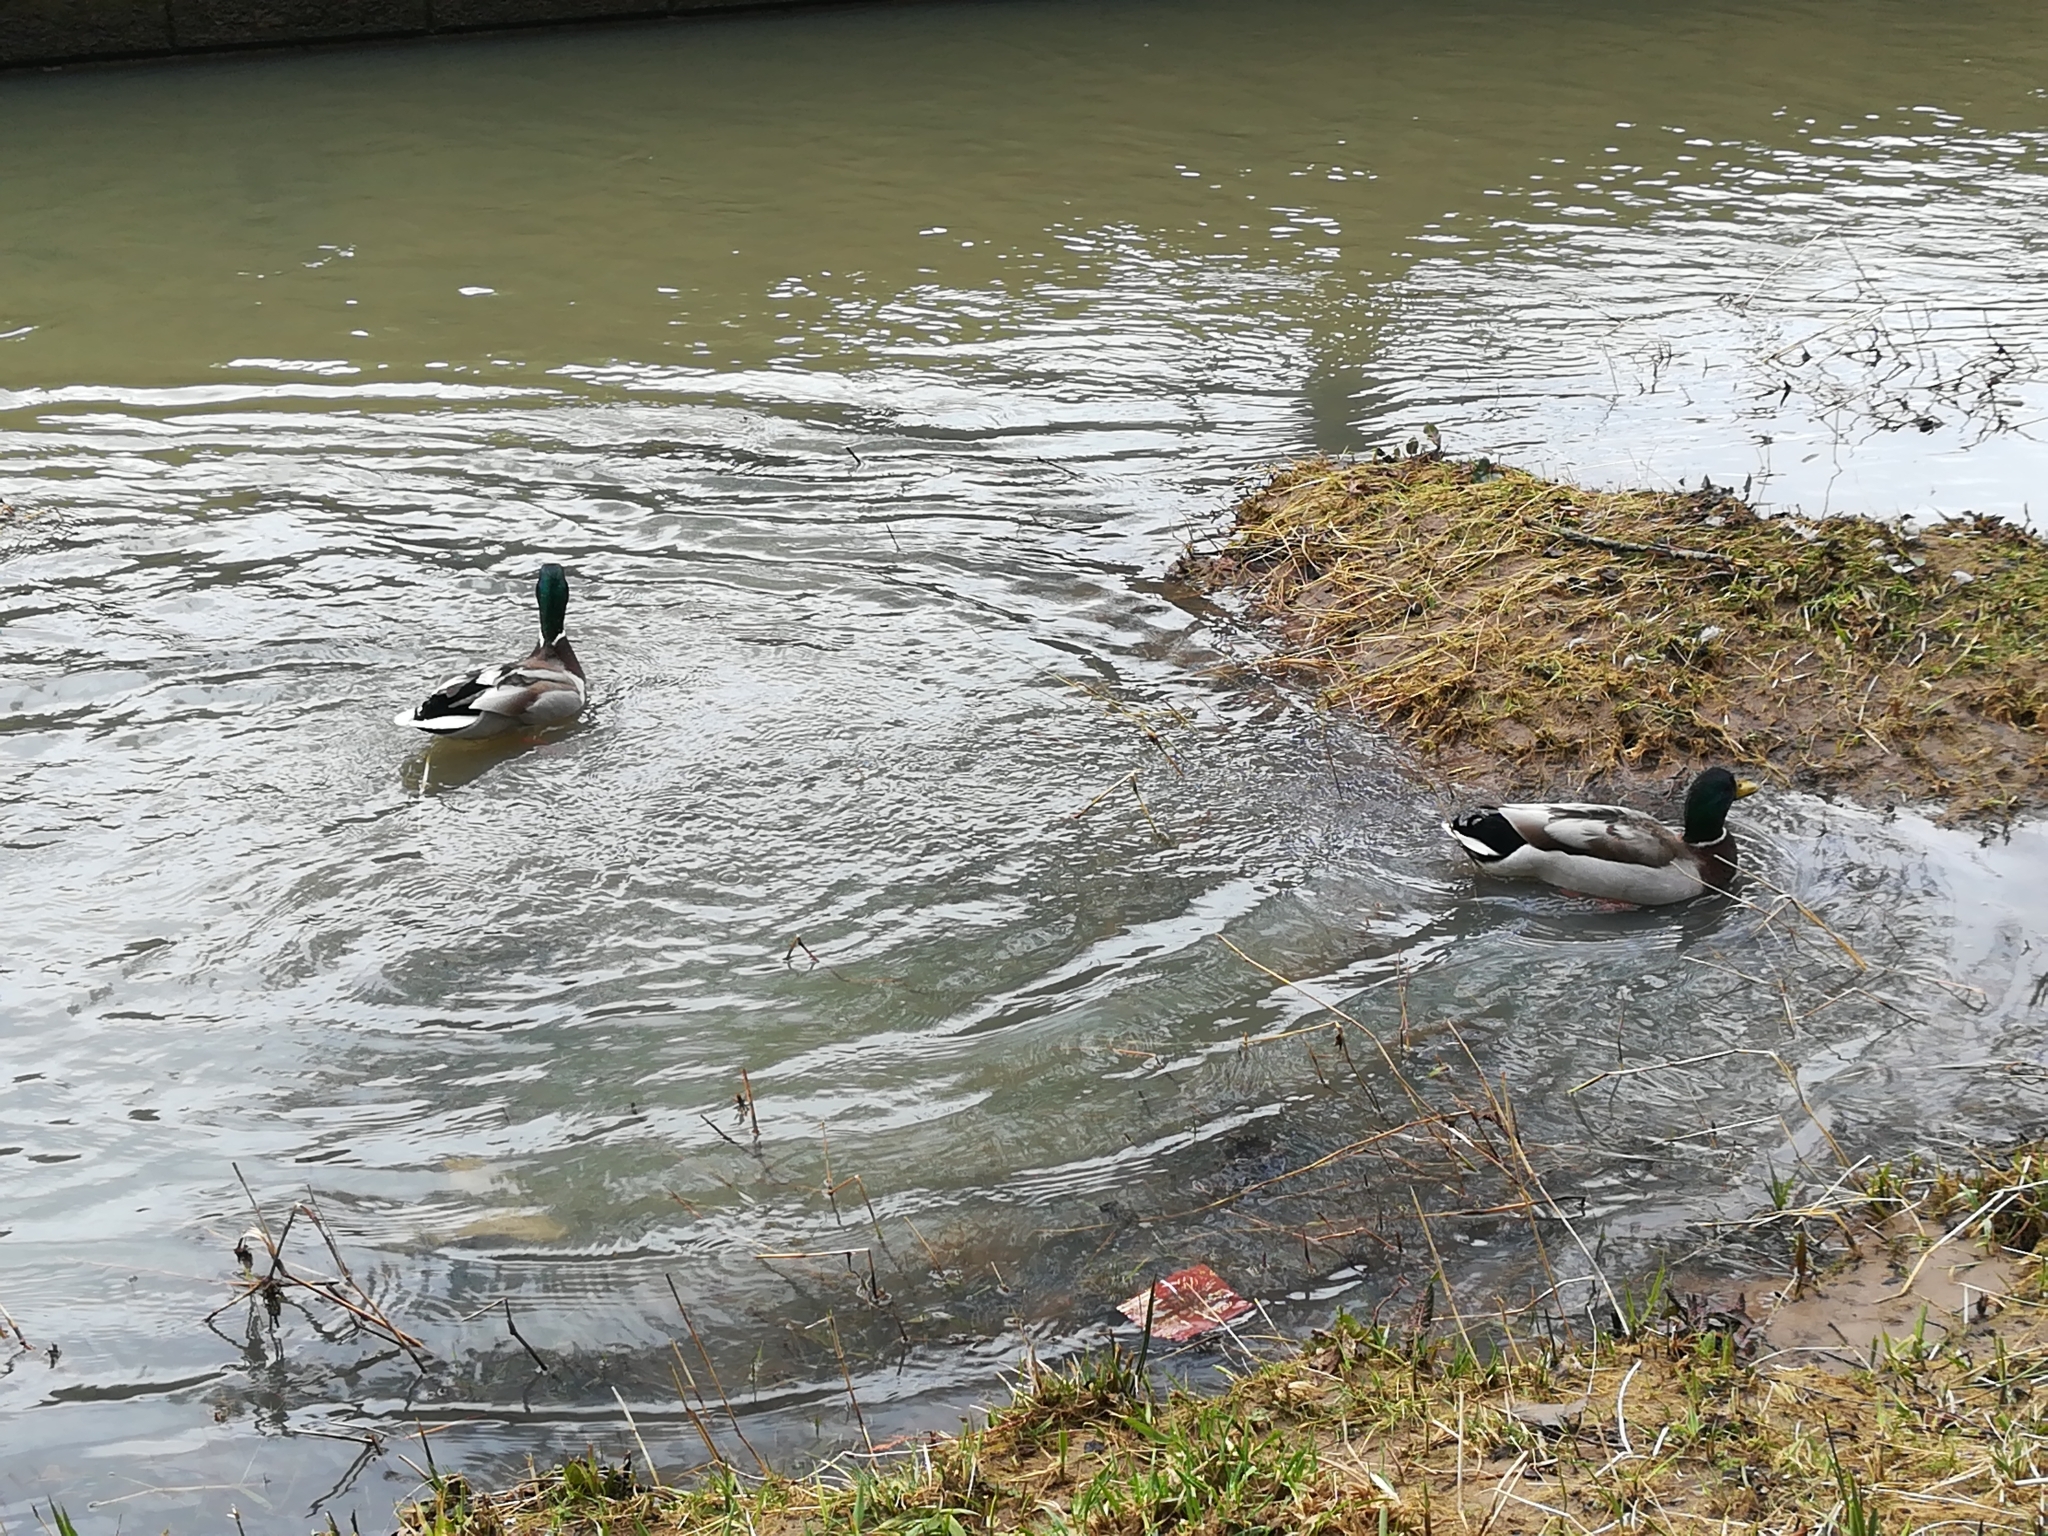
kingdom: Animalia
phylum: Chordata
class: Aves
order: Anseriformes
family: Anatidae
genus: Anas
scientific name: Anas platyrhynchos
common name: Mallard
